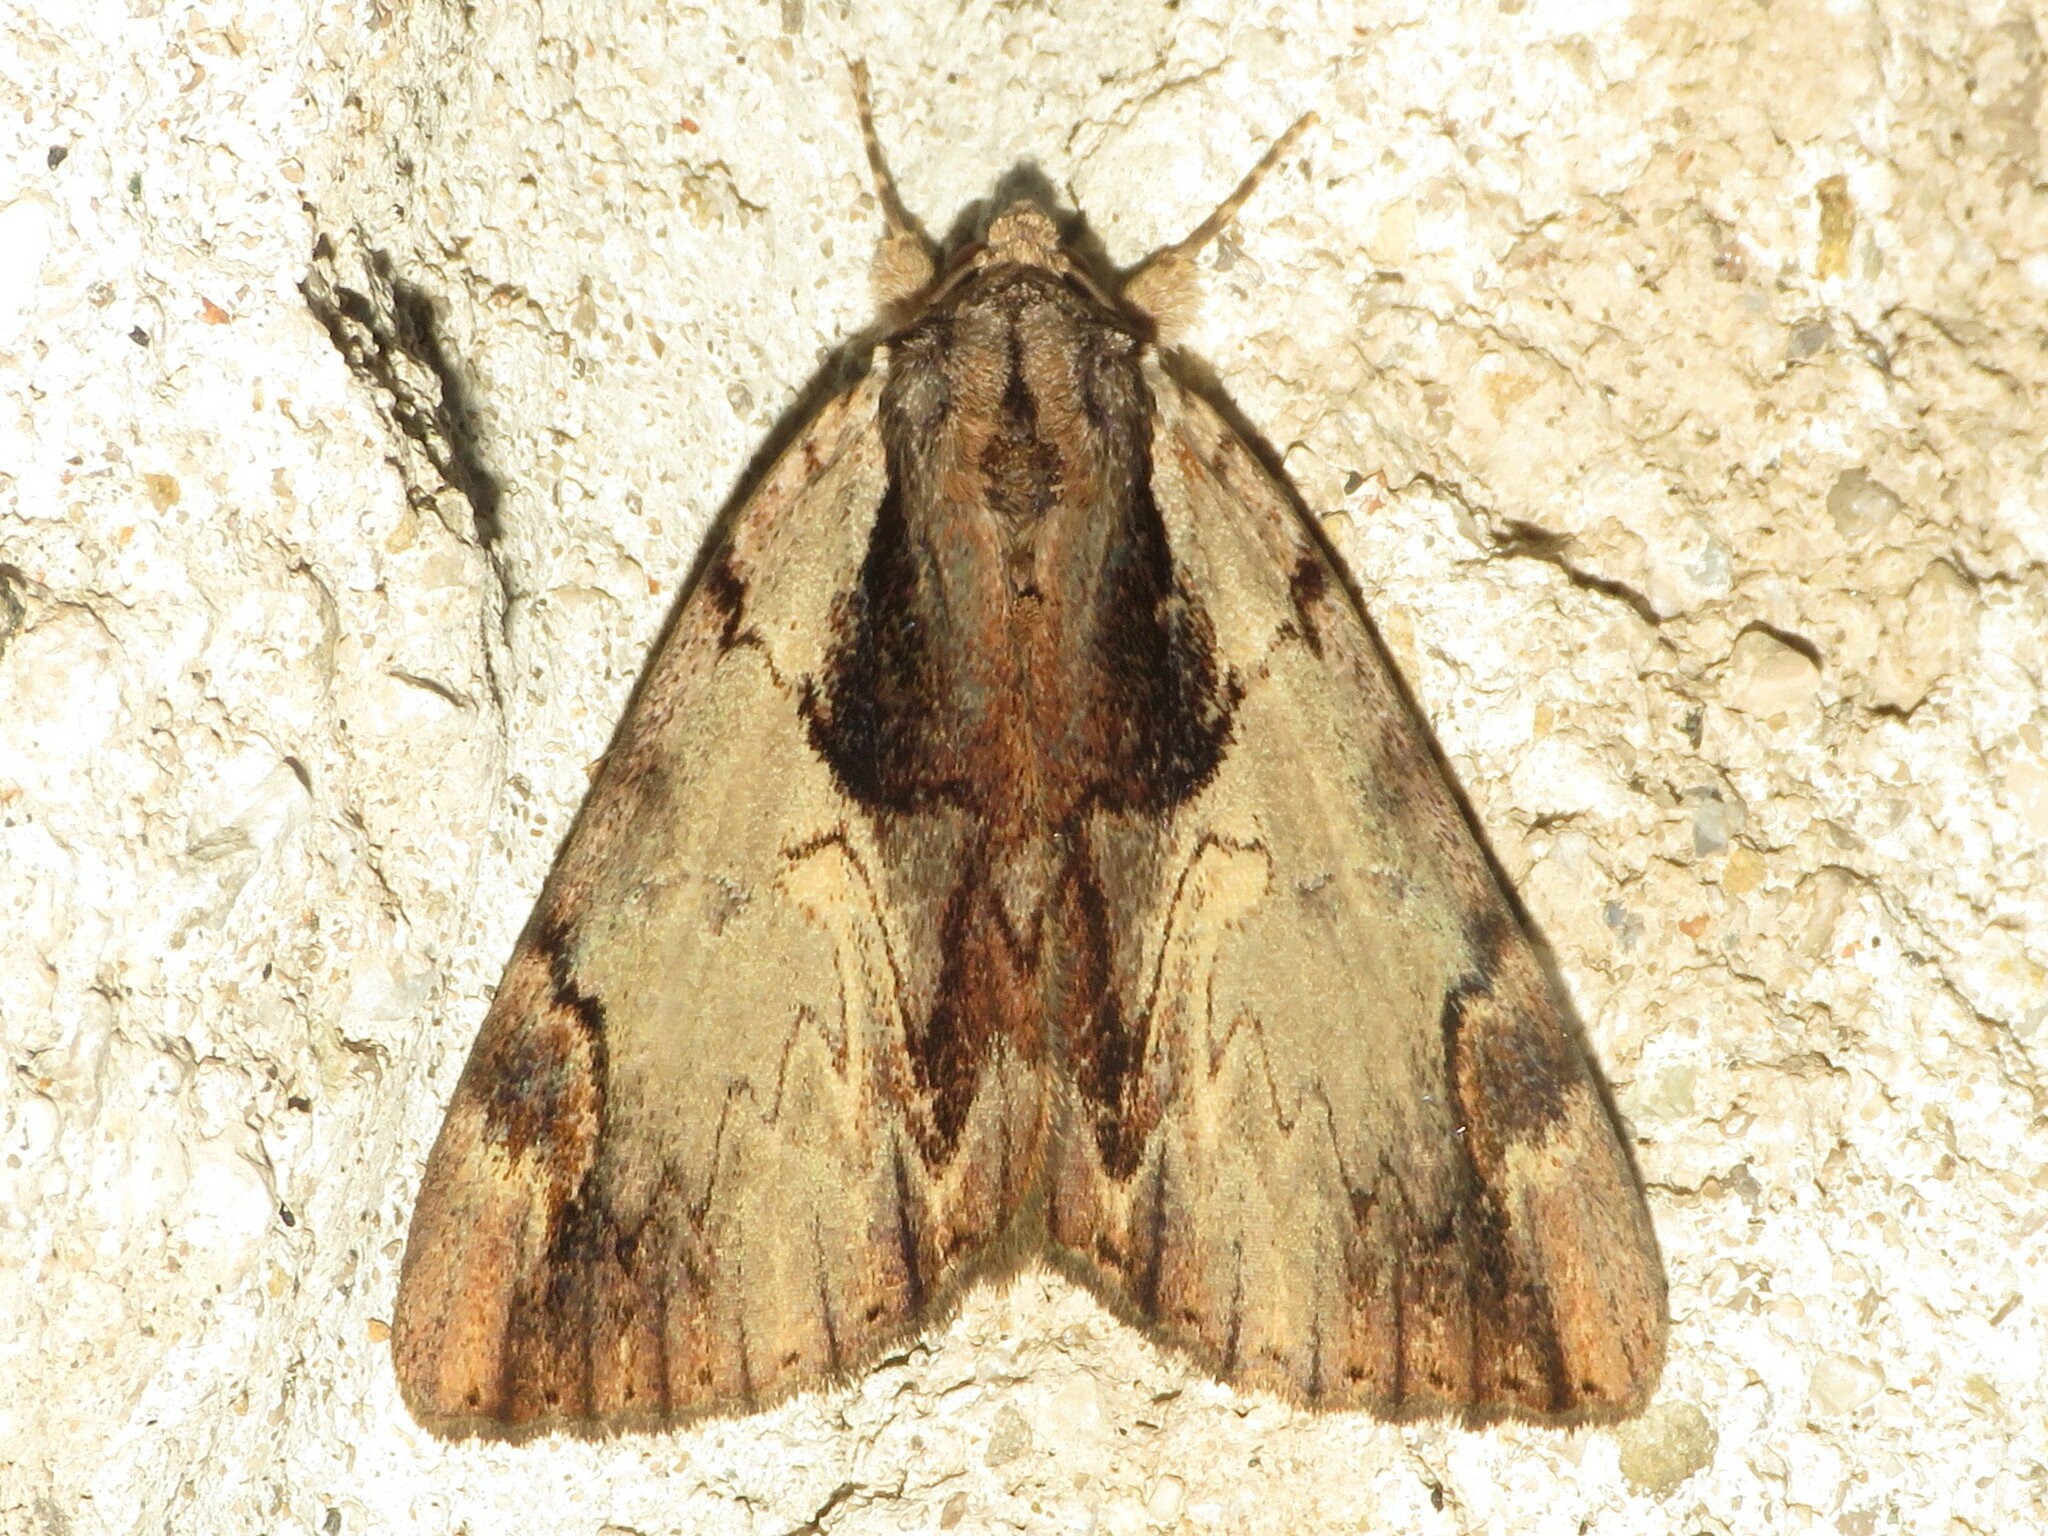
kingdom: Animalia
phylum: Arthropoda
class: Insecta
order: Lepidoptera
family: Erebidae
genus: Catocala
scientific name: Catocala ultronia
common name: Ultronia underwing
